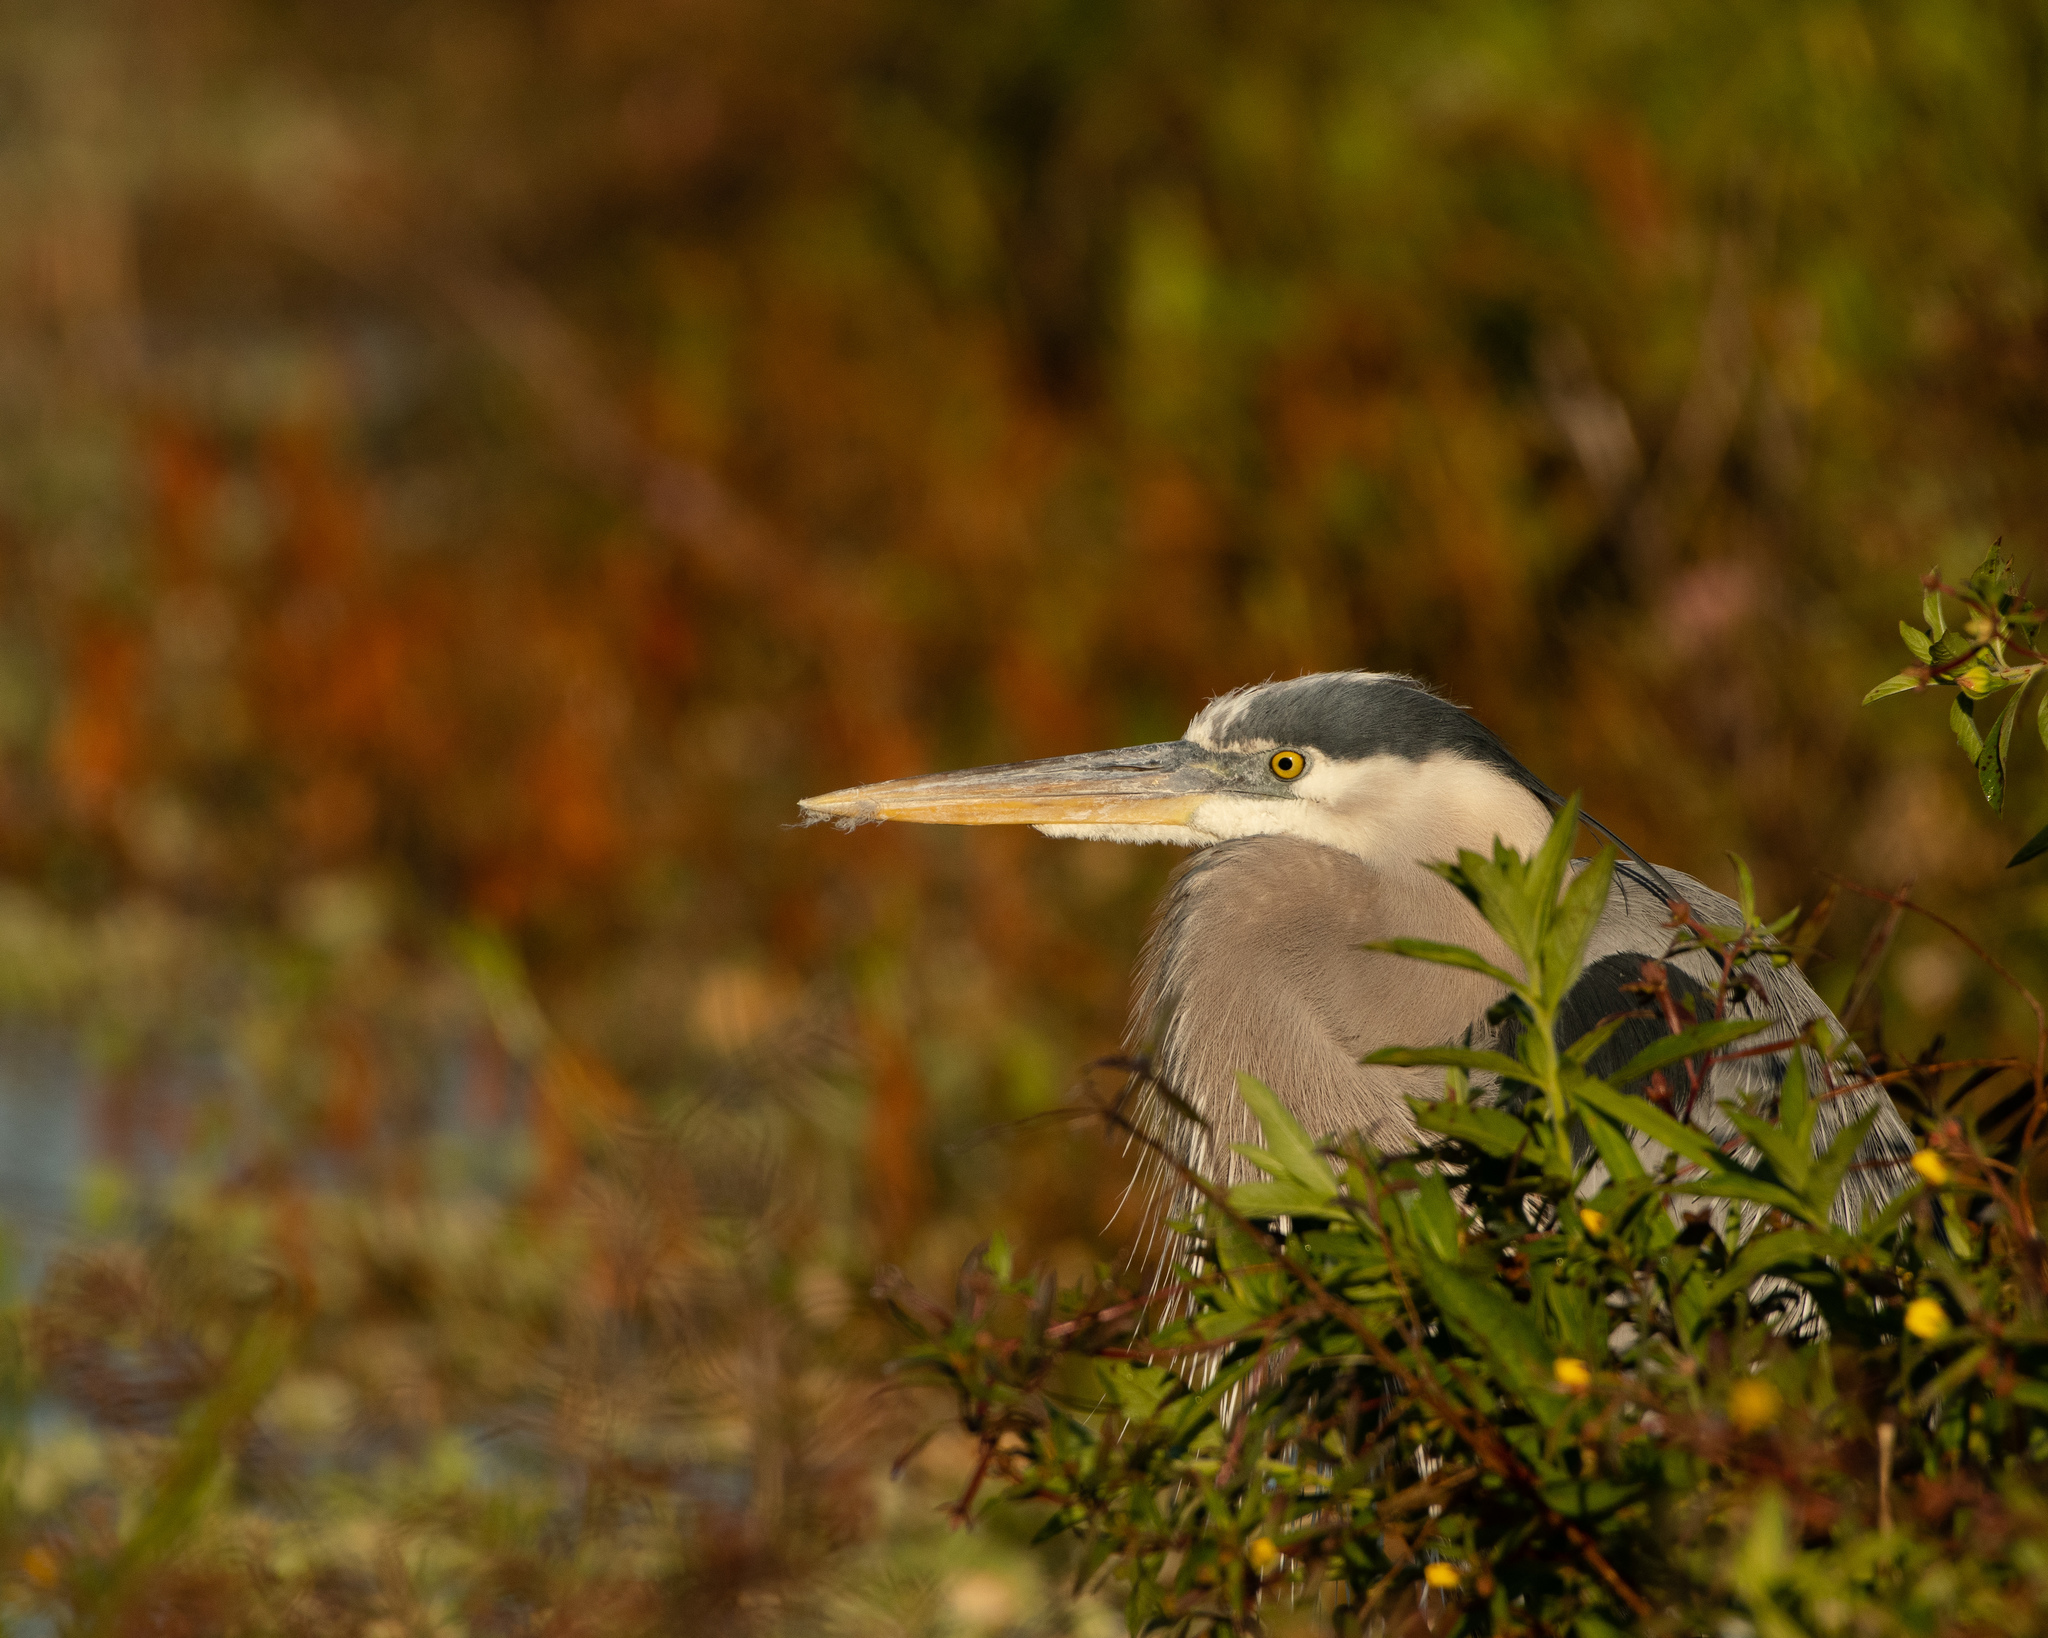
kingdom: Animalia
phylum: Chordata
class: Aves
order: Pelecaniformes
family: Ardeidae
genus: Ardea
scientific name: Ardea herodias
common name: Great blue heron
